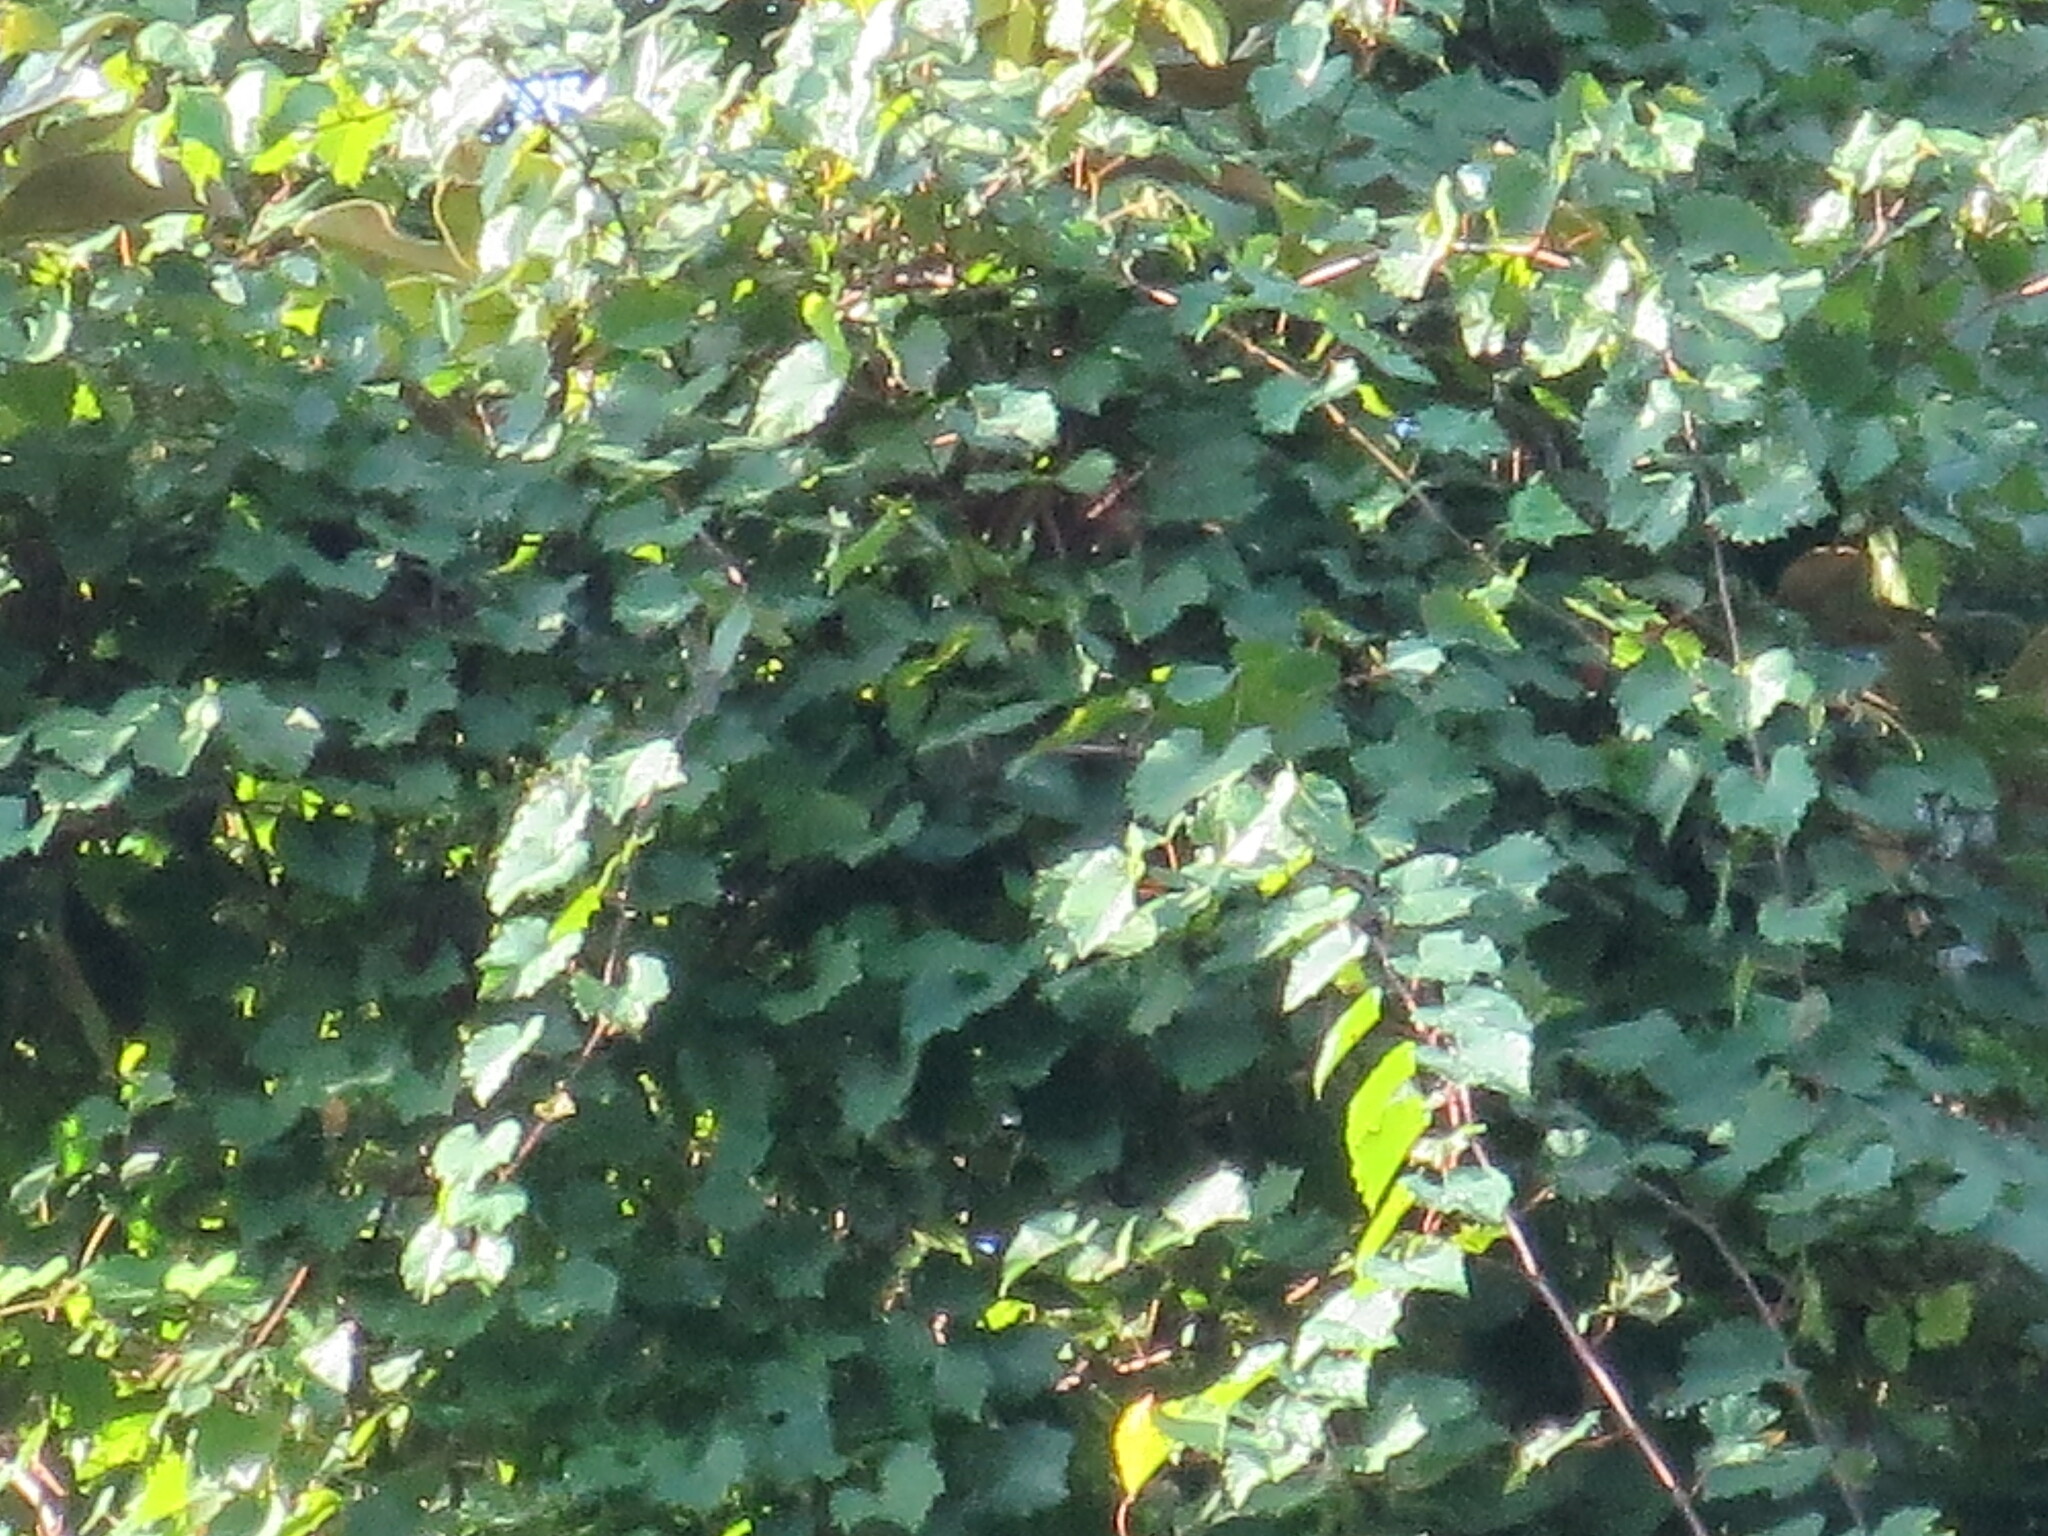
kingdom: Plantae
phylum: Tracheophyta
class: Magnoliopsida
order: Vitales
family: Vitaceae
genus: Vitis
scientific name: Vitis rotundifolia
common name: Muscadine grape
